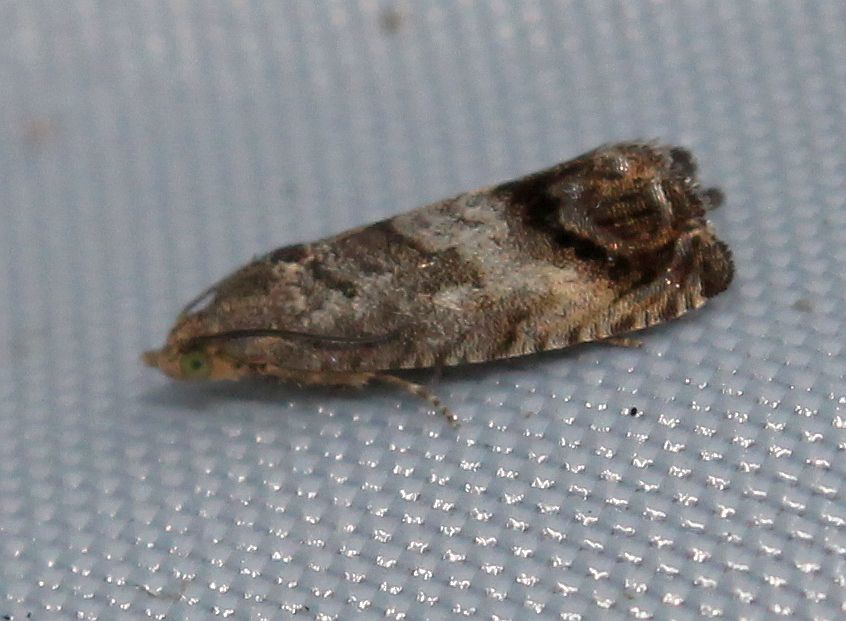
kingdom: Animalia
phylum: Arthropoda
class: Insecta
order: Lepidoptera
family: Tortricidae
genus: Cydia
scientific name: Cydia splendana
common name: De: kastanienwickler, eichenwickler es: oruga de la castaña fr: carpocapse des châtaignes it: cidia o tortrice tardiva delle castagne pt: bichado das castanhas gb: acorn moth, chestnut fruit tortrix
